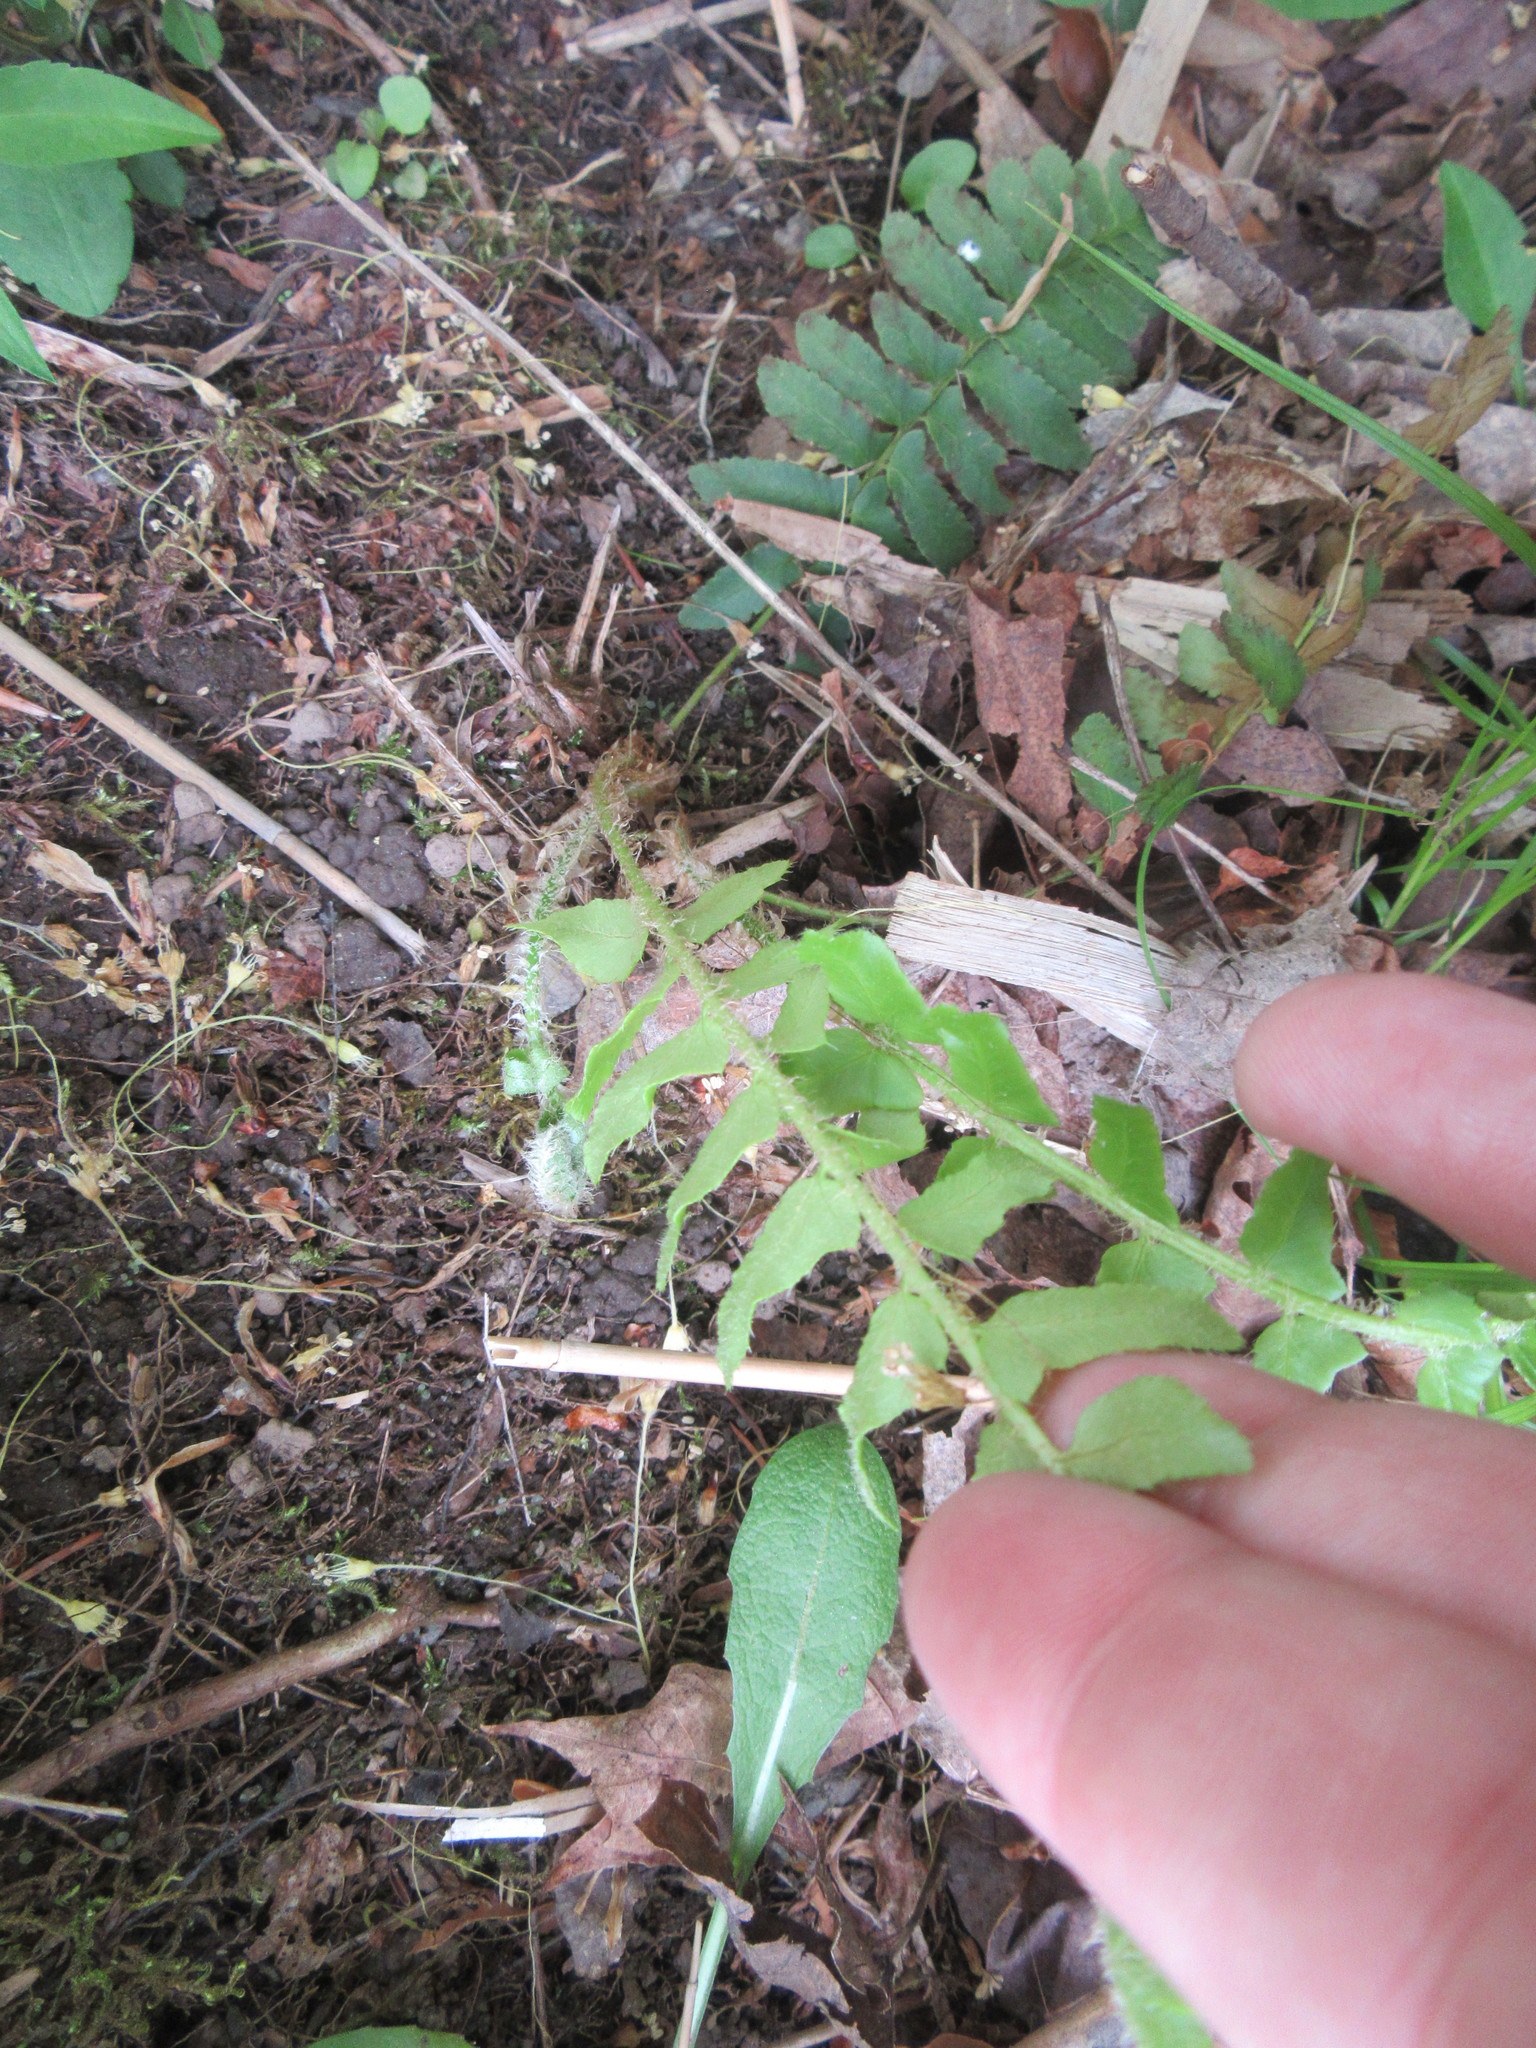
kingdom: Plantae
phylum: Tracheophyta
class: Polypodiopsida
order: Polypodiales
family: Dryopteridaceae
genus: Polystichum
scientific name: Polystichum acrostichoides
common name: Christmas fern
